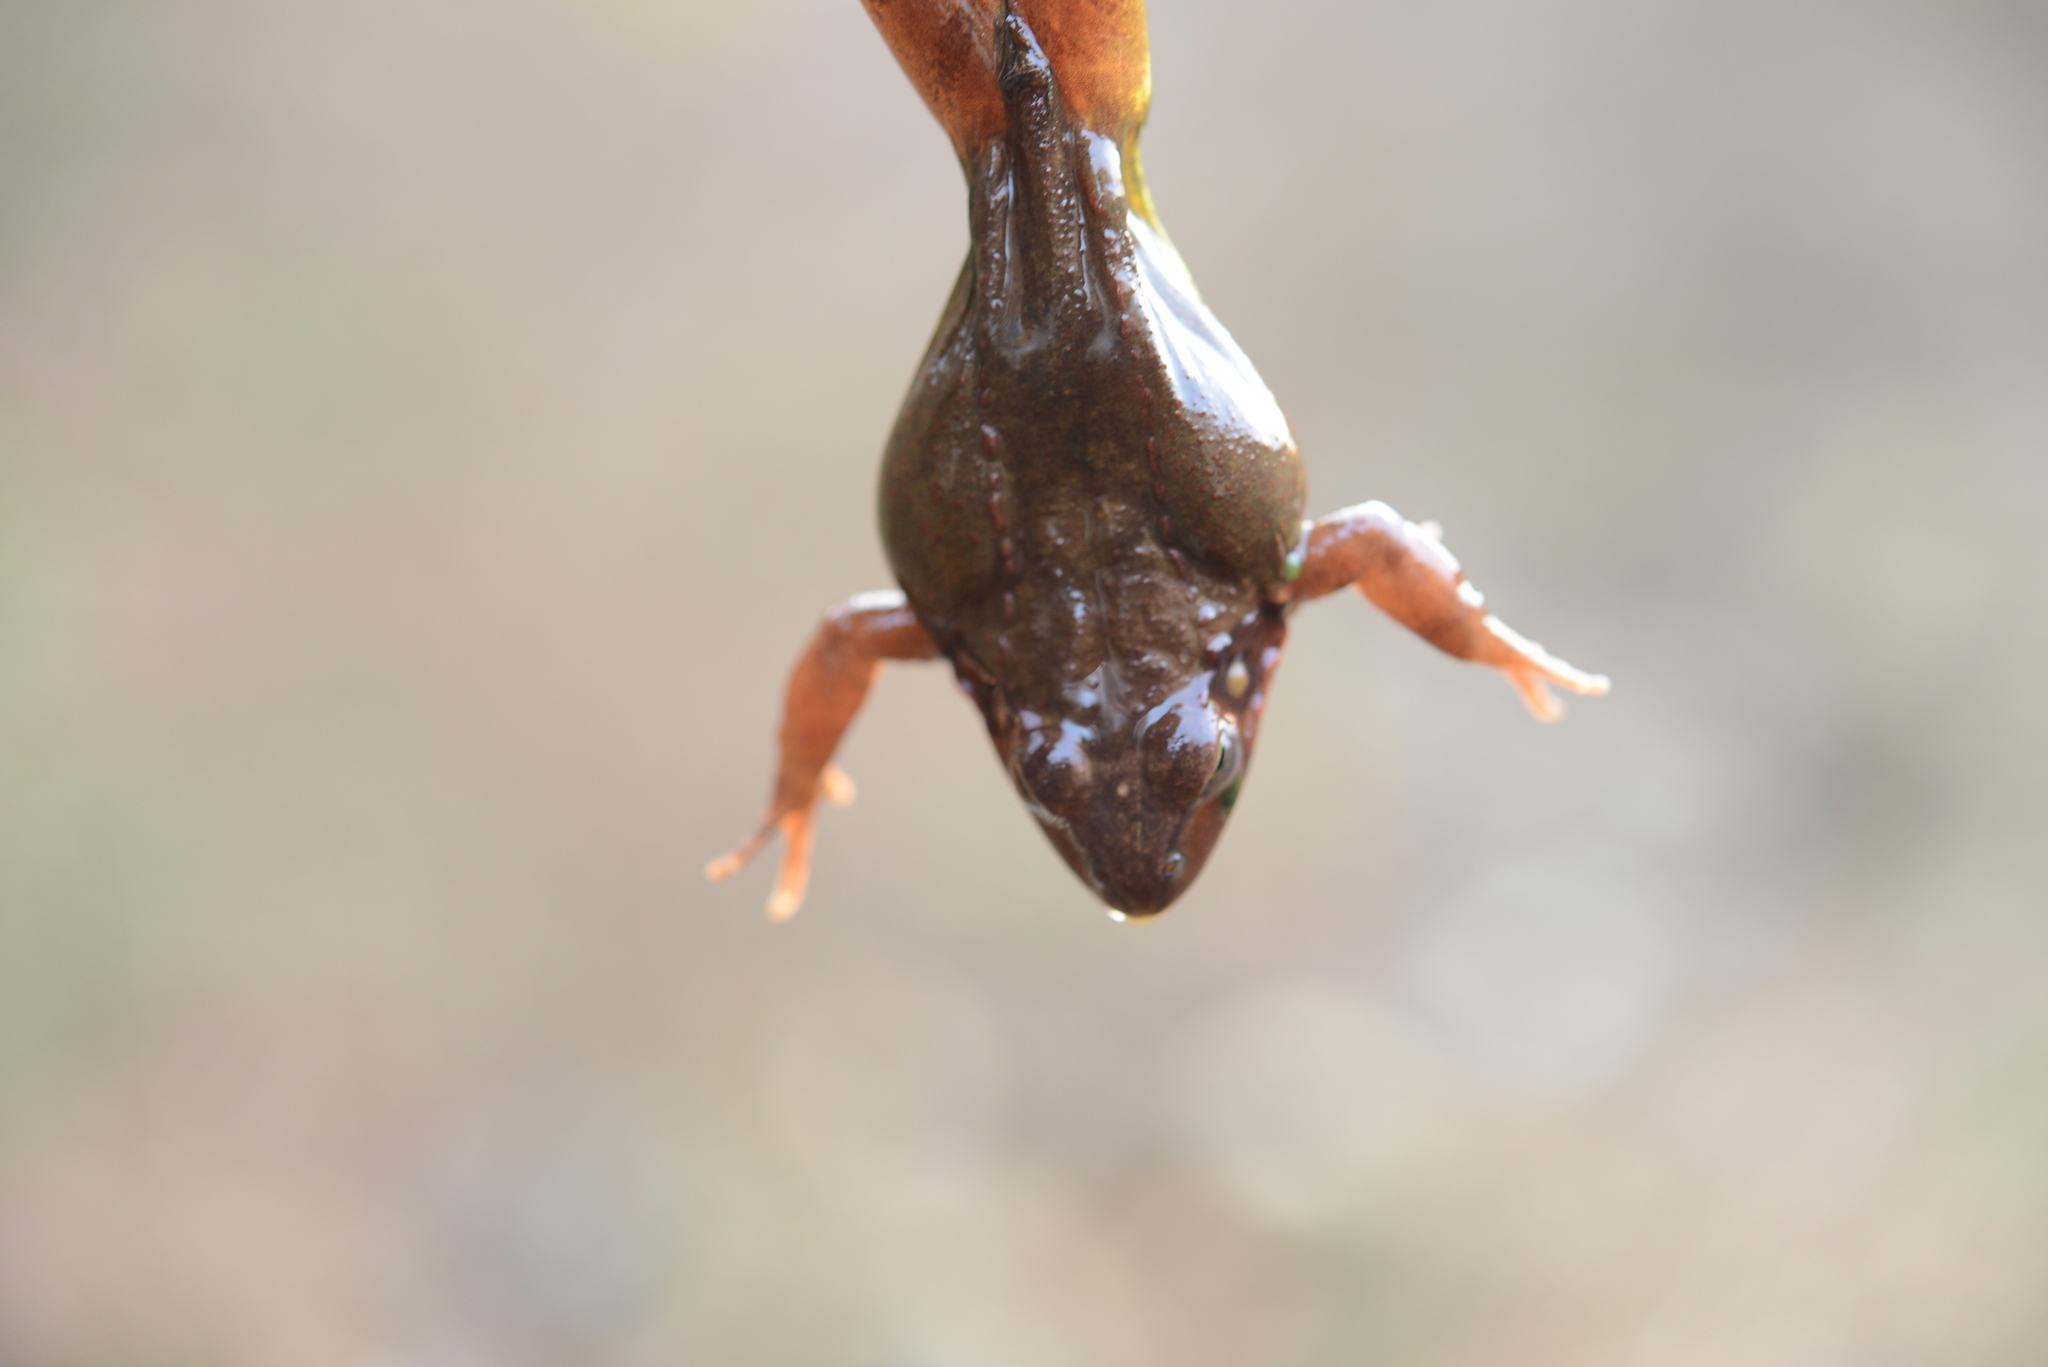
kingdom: Animalia
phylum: Chordata
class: Amphibia
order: Anura
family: Ranidae
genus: Rana
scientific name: Rana uenoi
